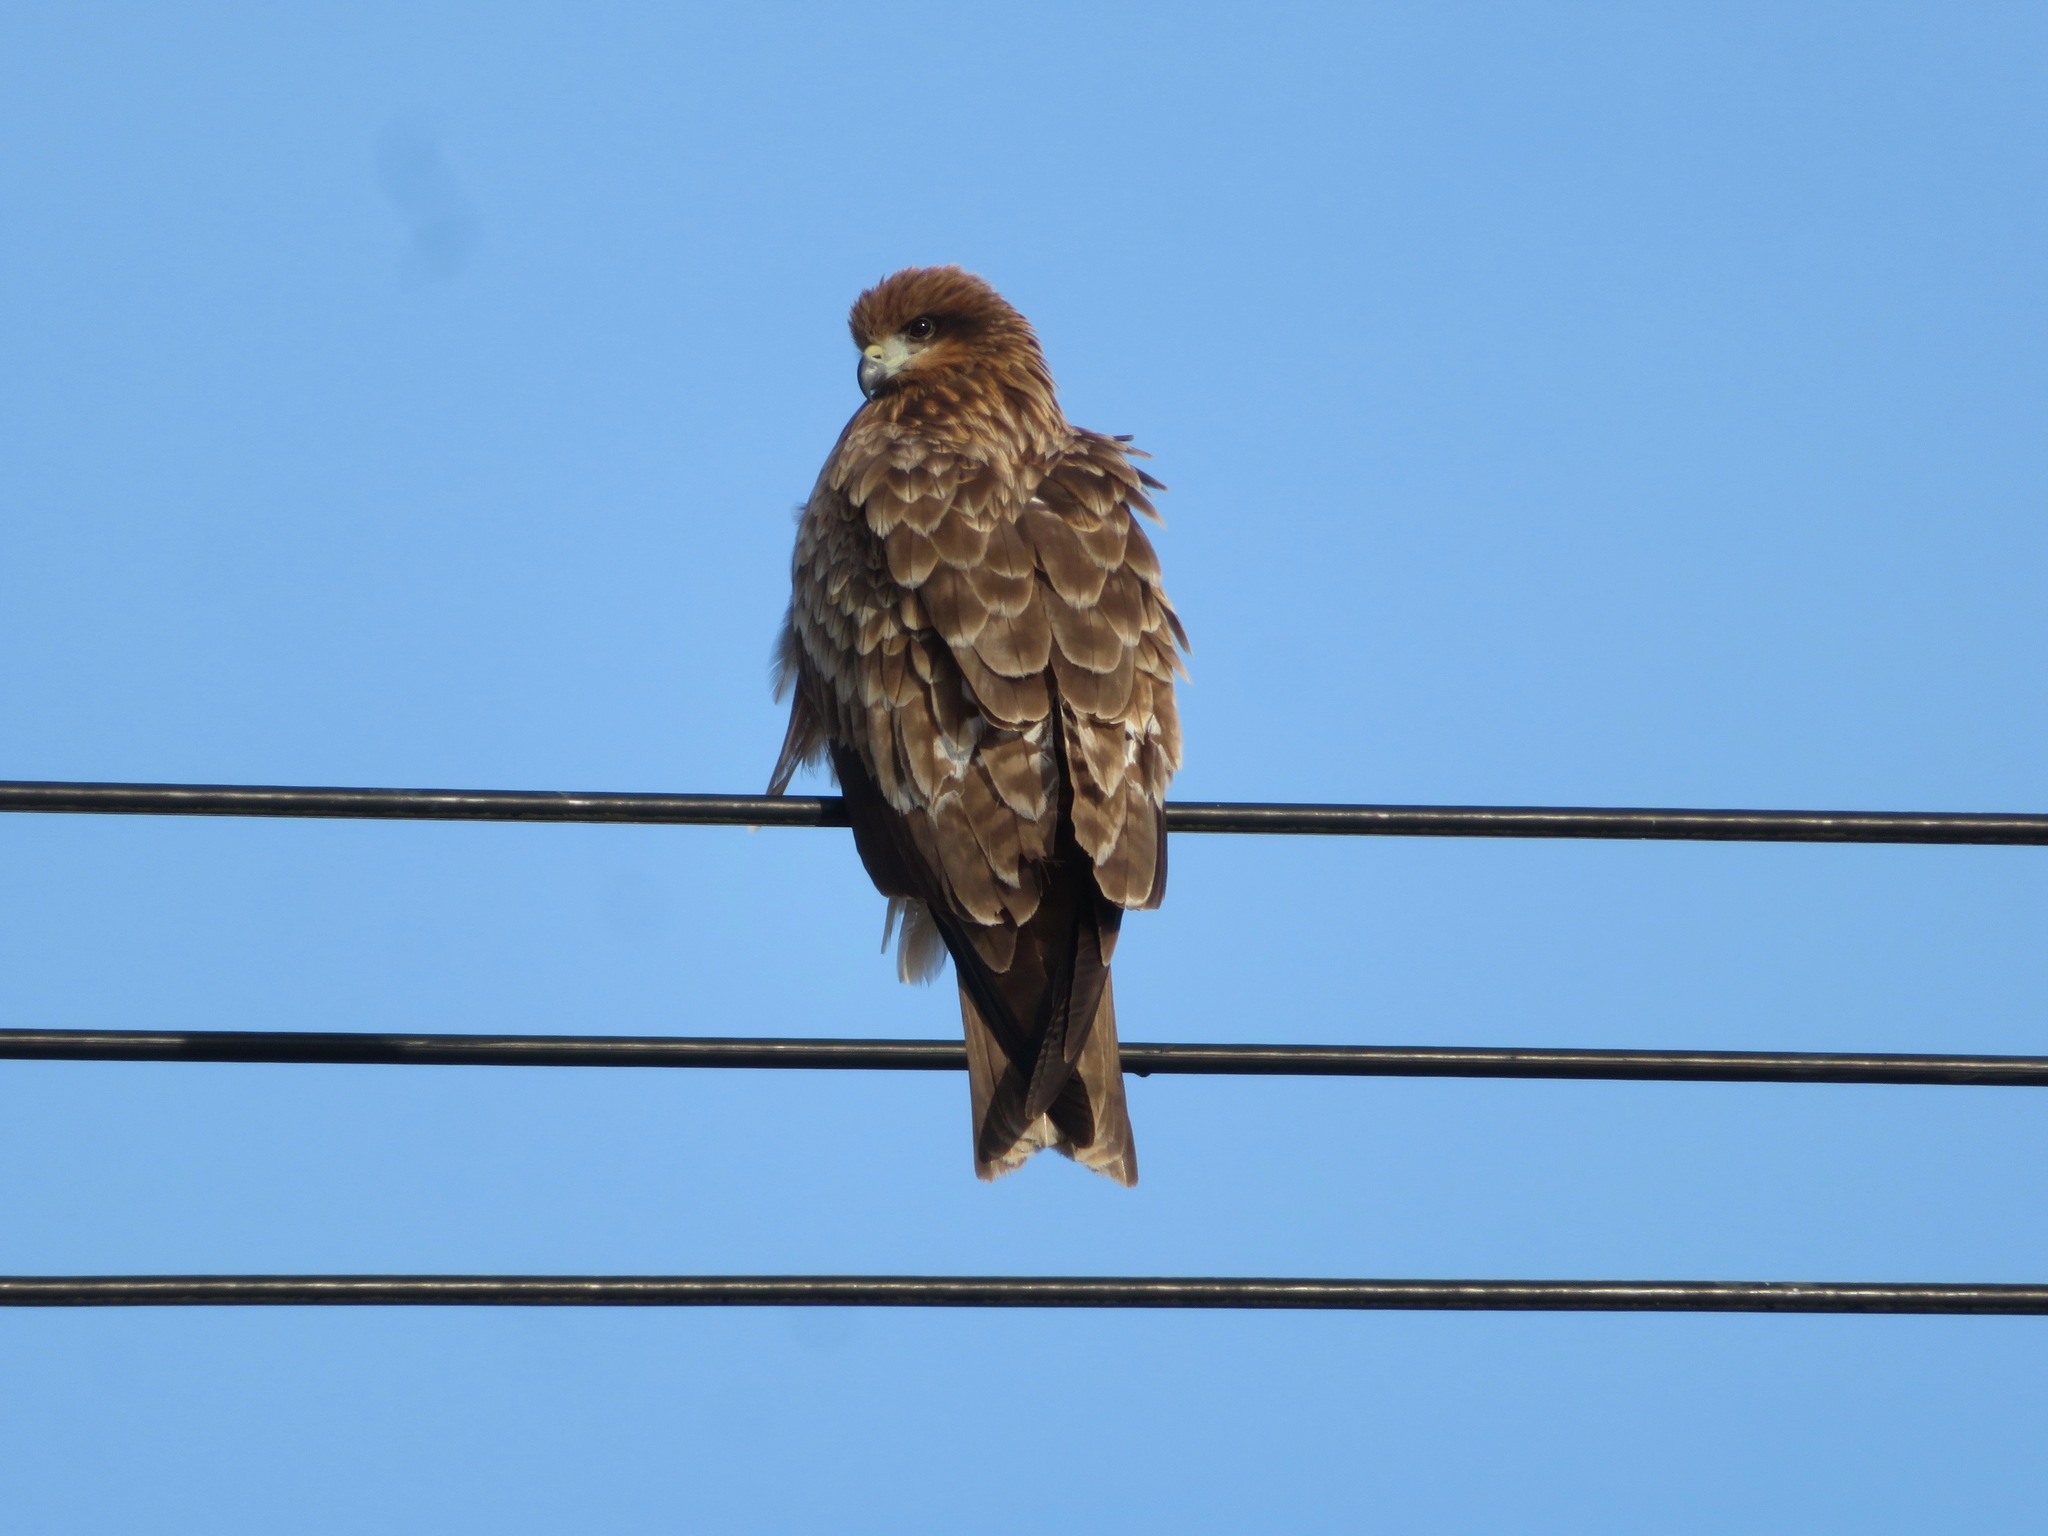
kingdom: Animalia
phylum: Chordata
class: Aves
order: Accipitriformes
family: Accipitridae
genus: Milvus
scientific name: Milvus migrans
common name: Black kite
